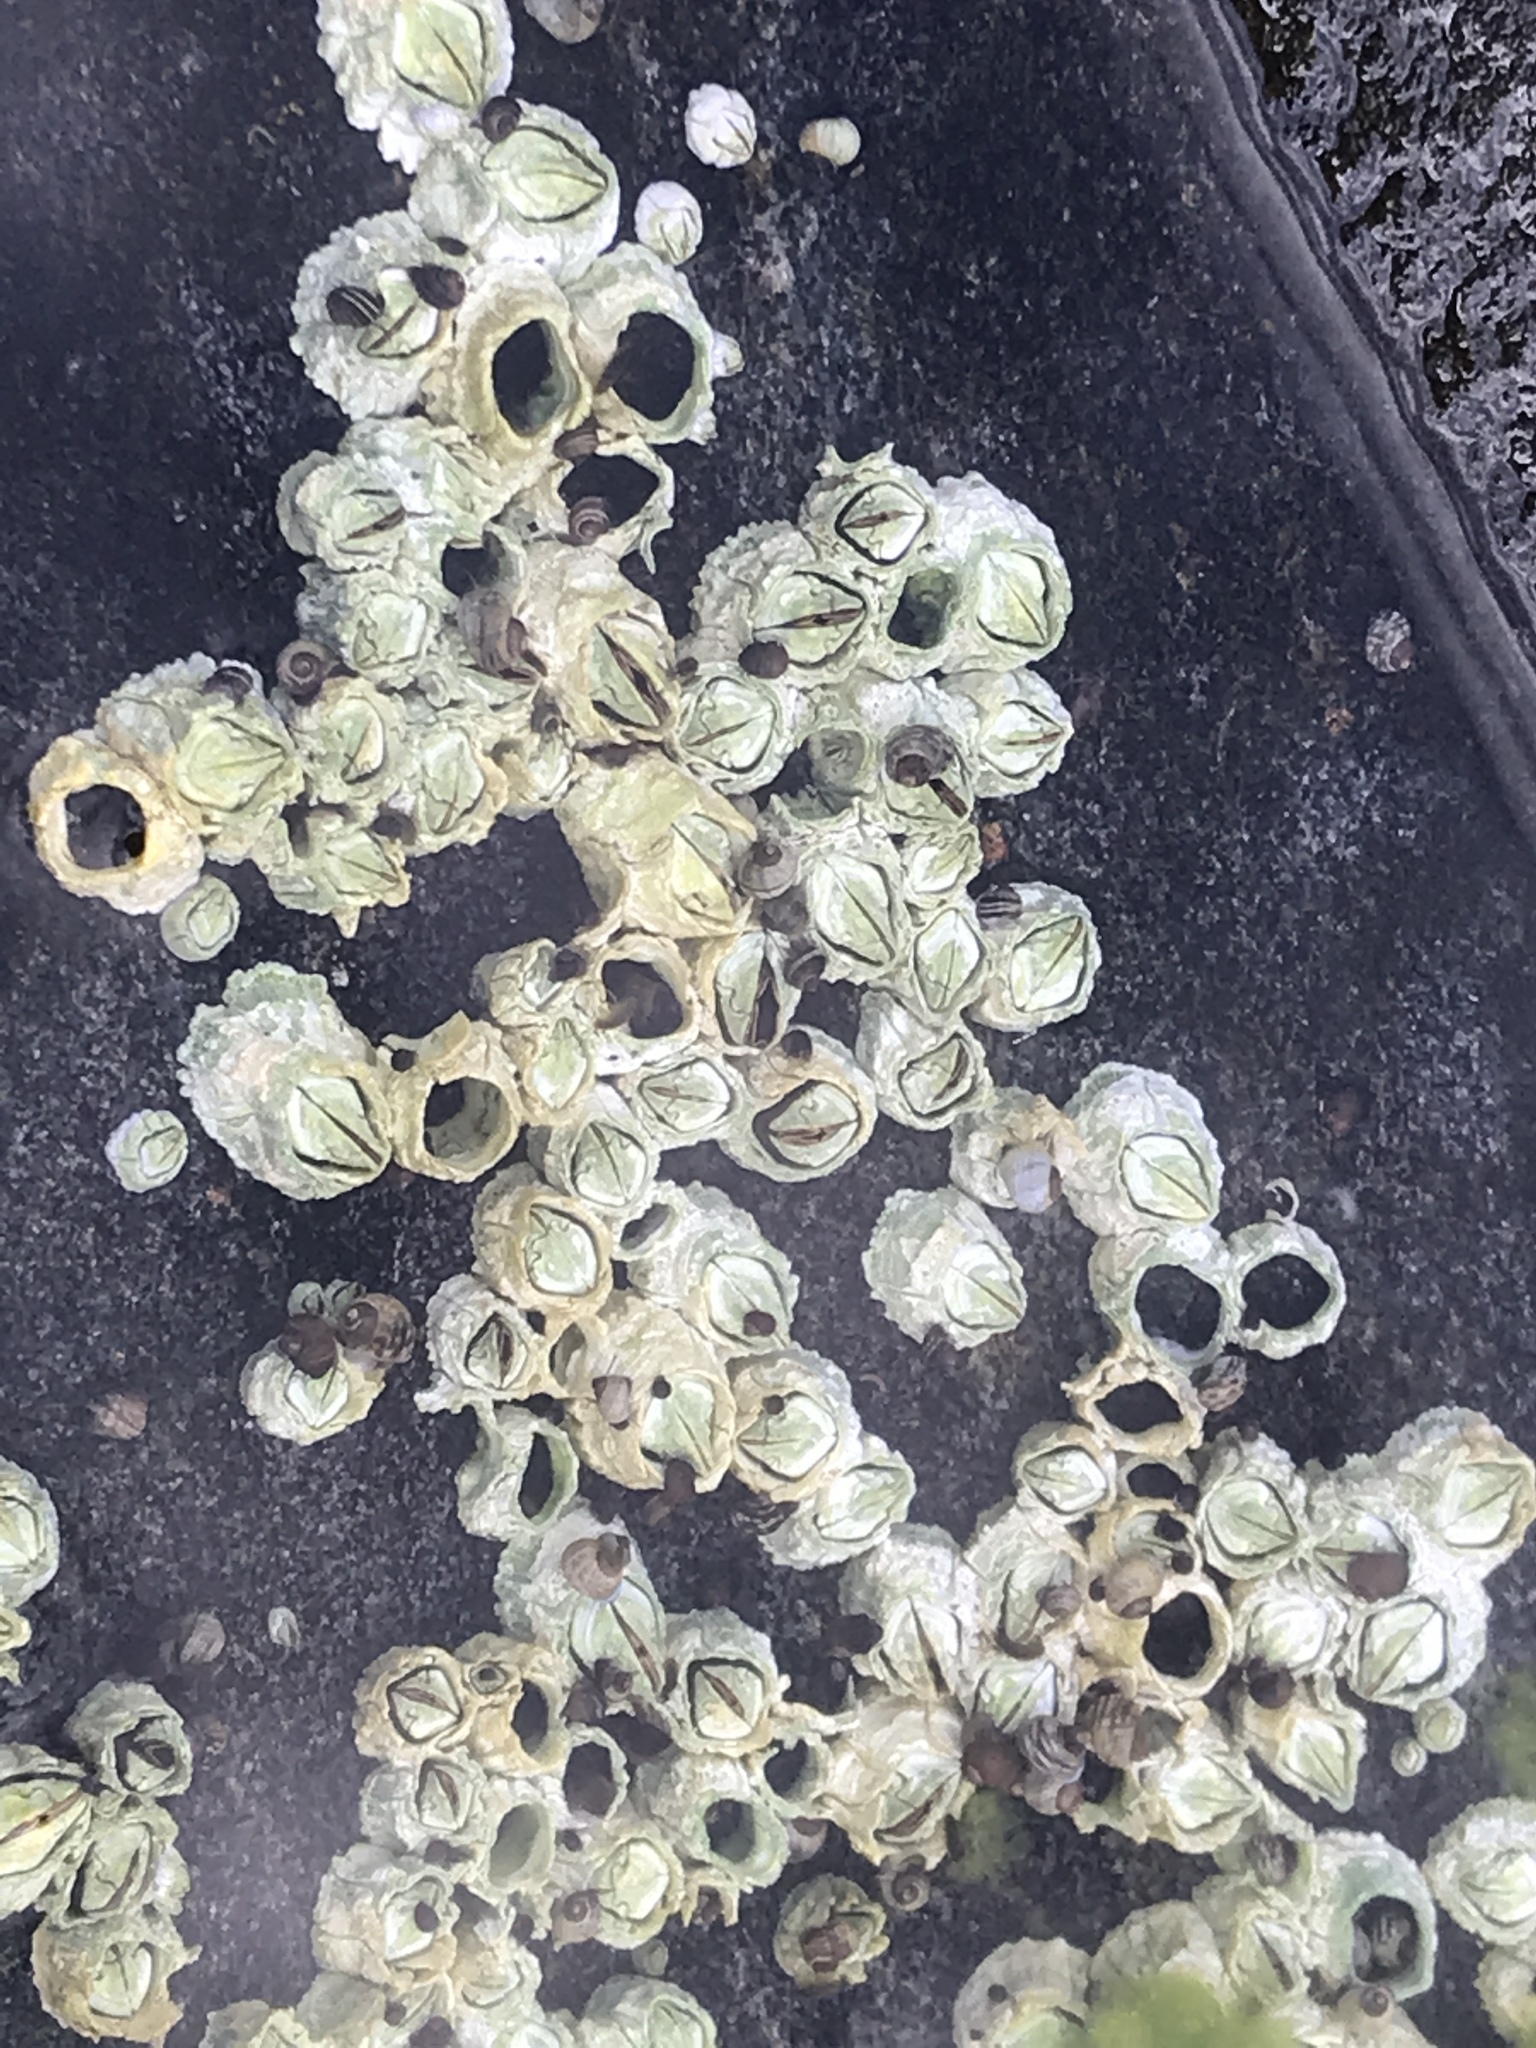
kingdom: Animalia
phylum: Arthropoda
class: Maxillopoda
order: Sessilia
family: Archaeobalanidae
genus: Semibalanus
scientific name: Semibalanus balanoides
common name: Acorn barnacle
